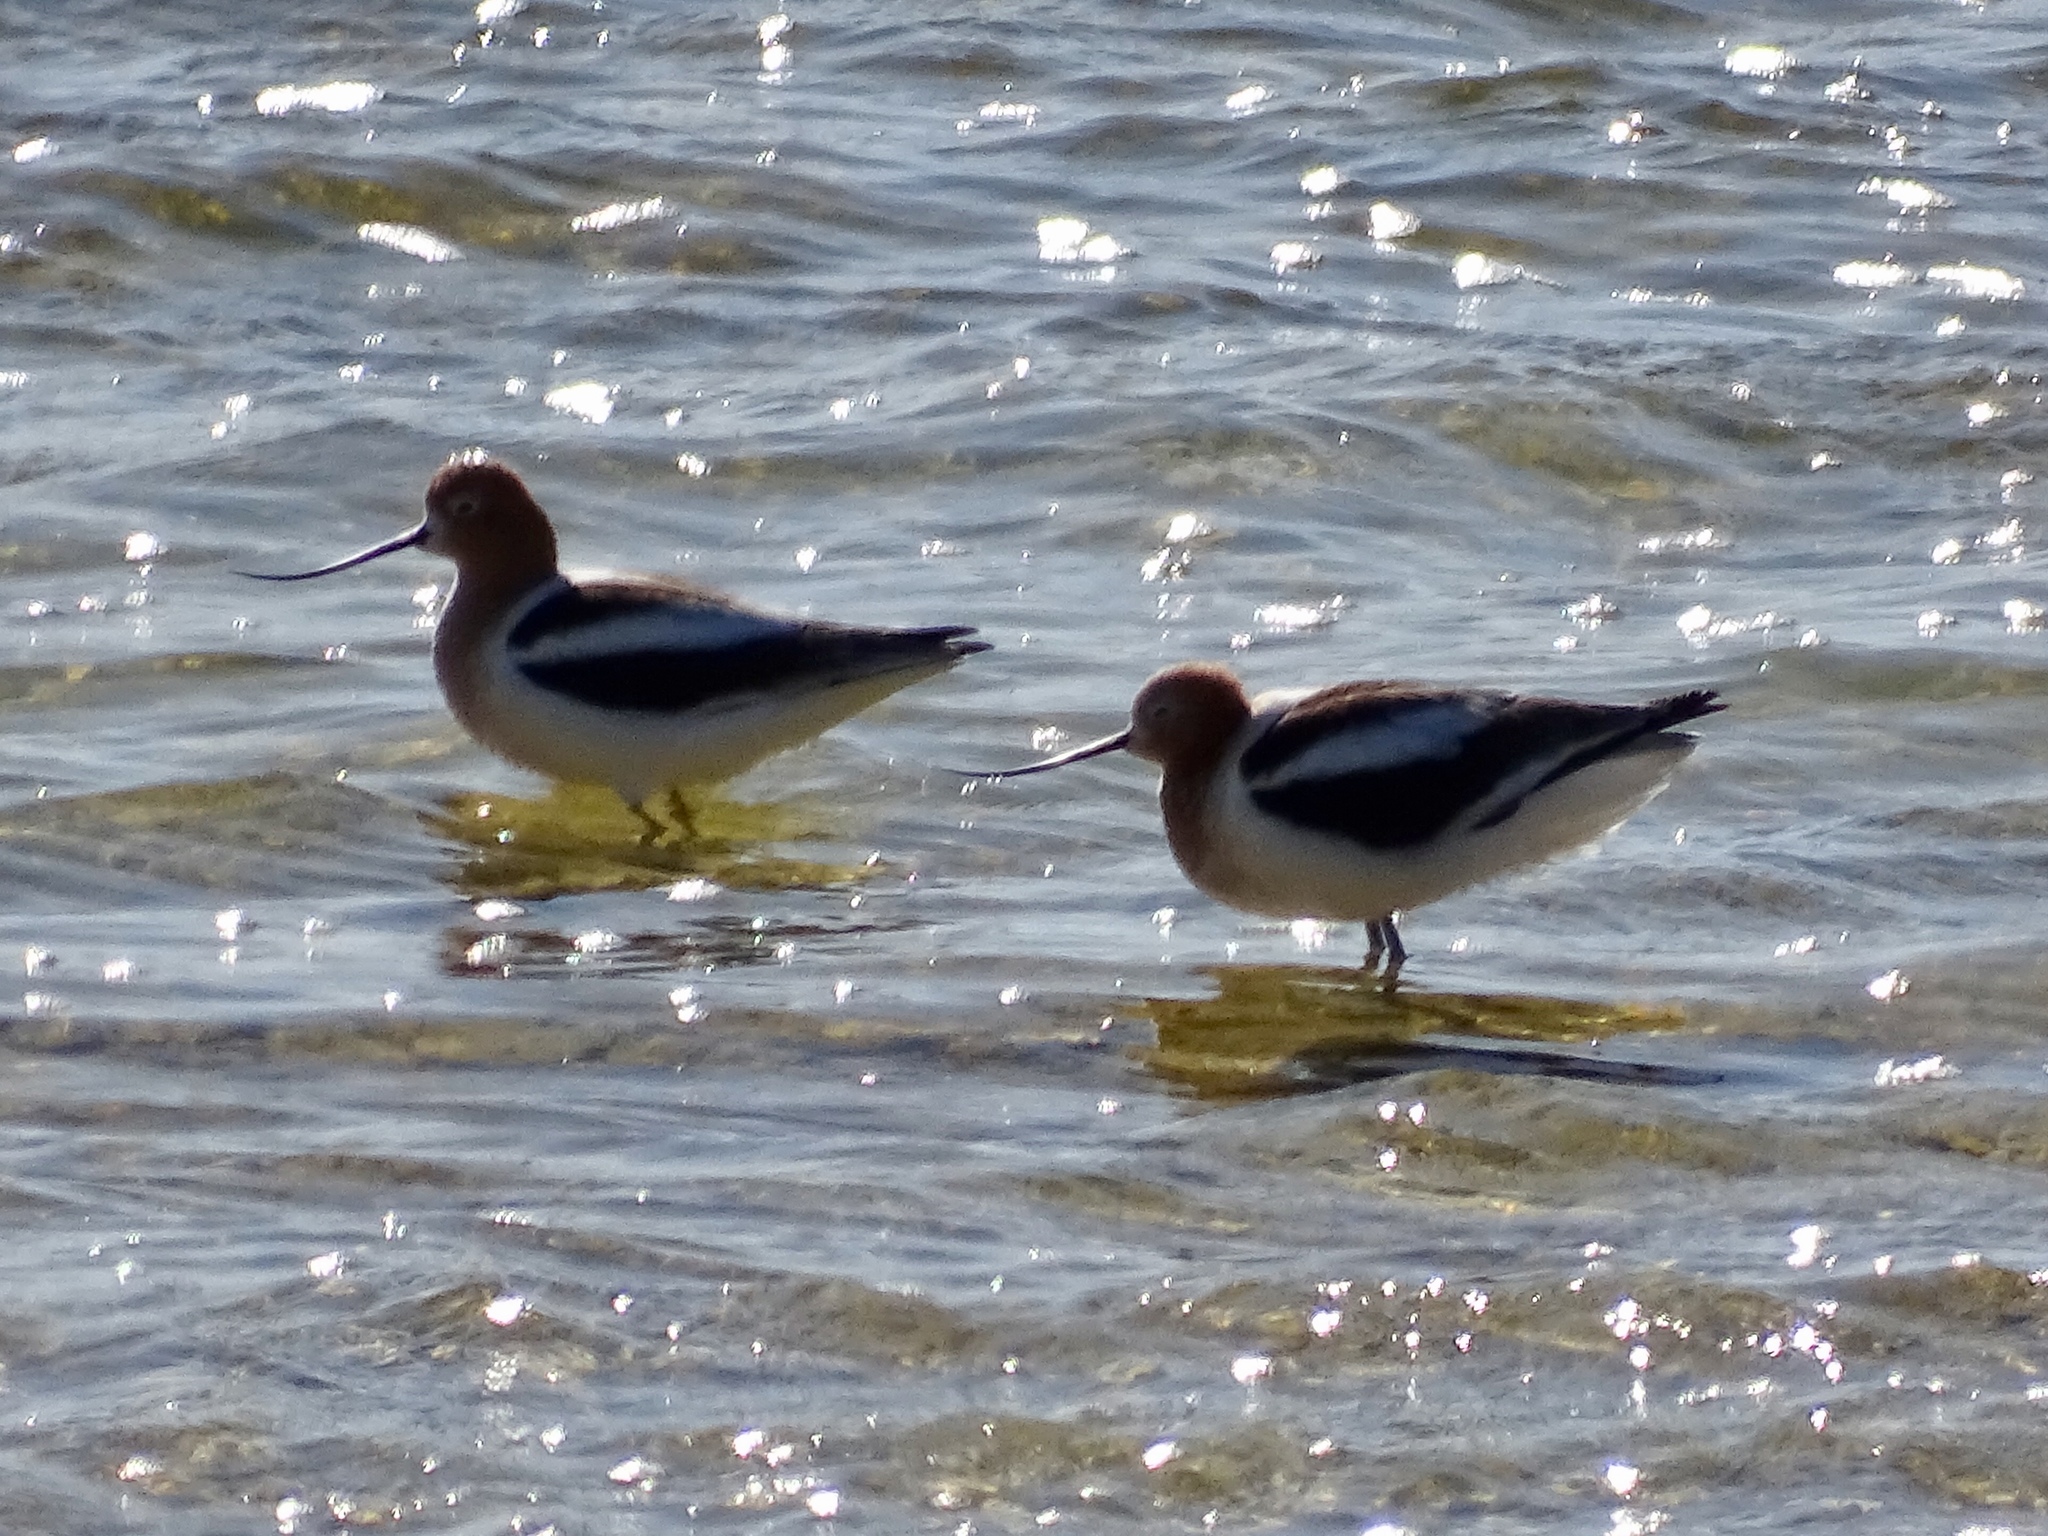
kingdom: Animalia
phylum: Chordata
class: Aves
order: Charadriiformes
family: Recurvirostridae
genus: Recurvirostra
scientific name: Recurvirostra americana
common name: American avocet
